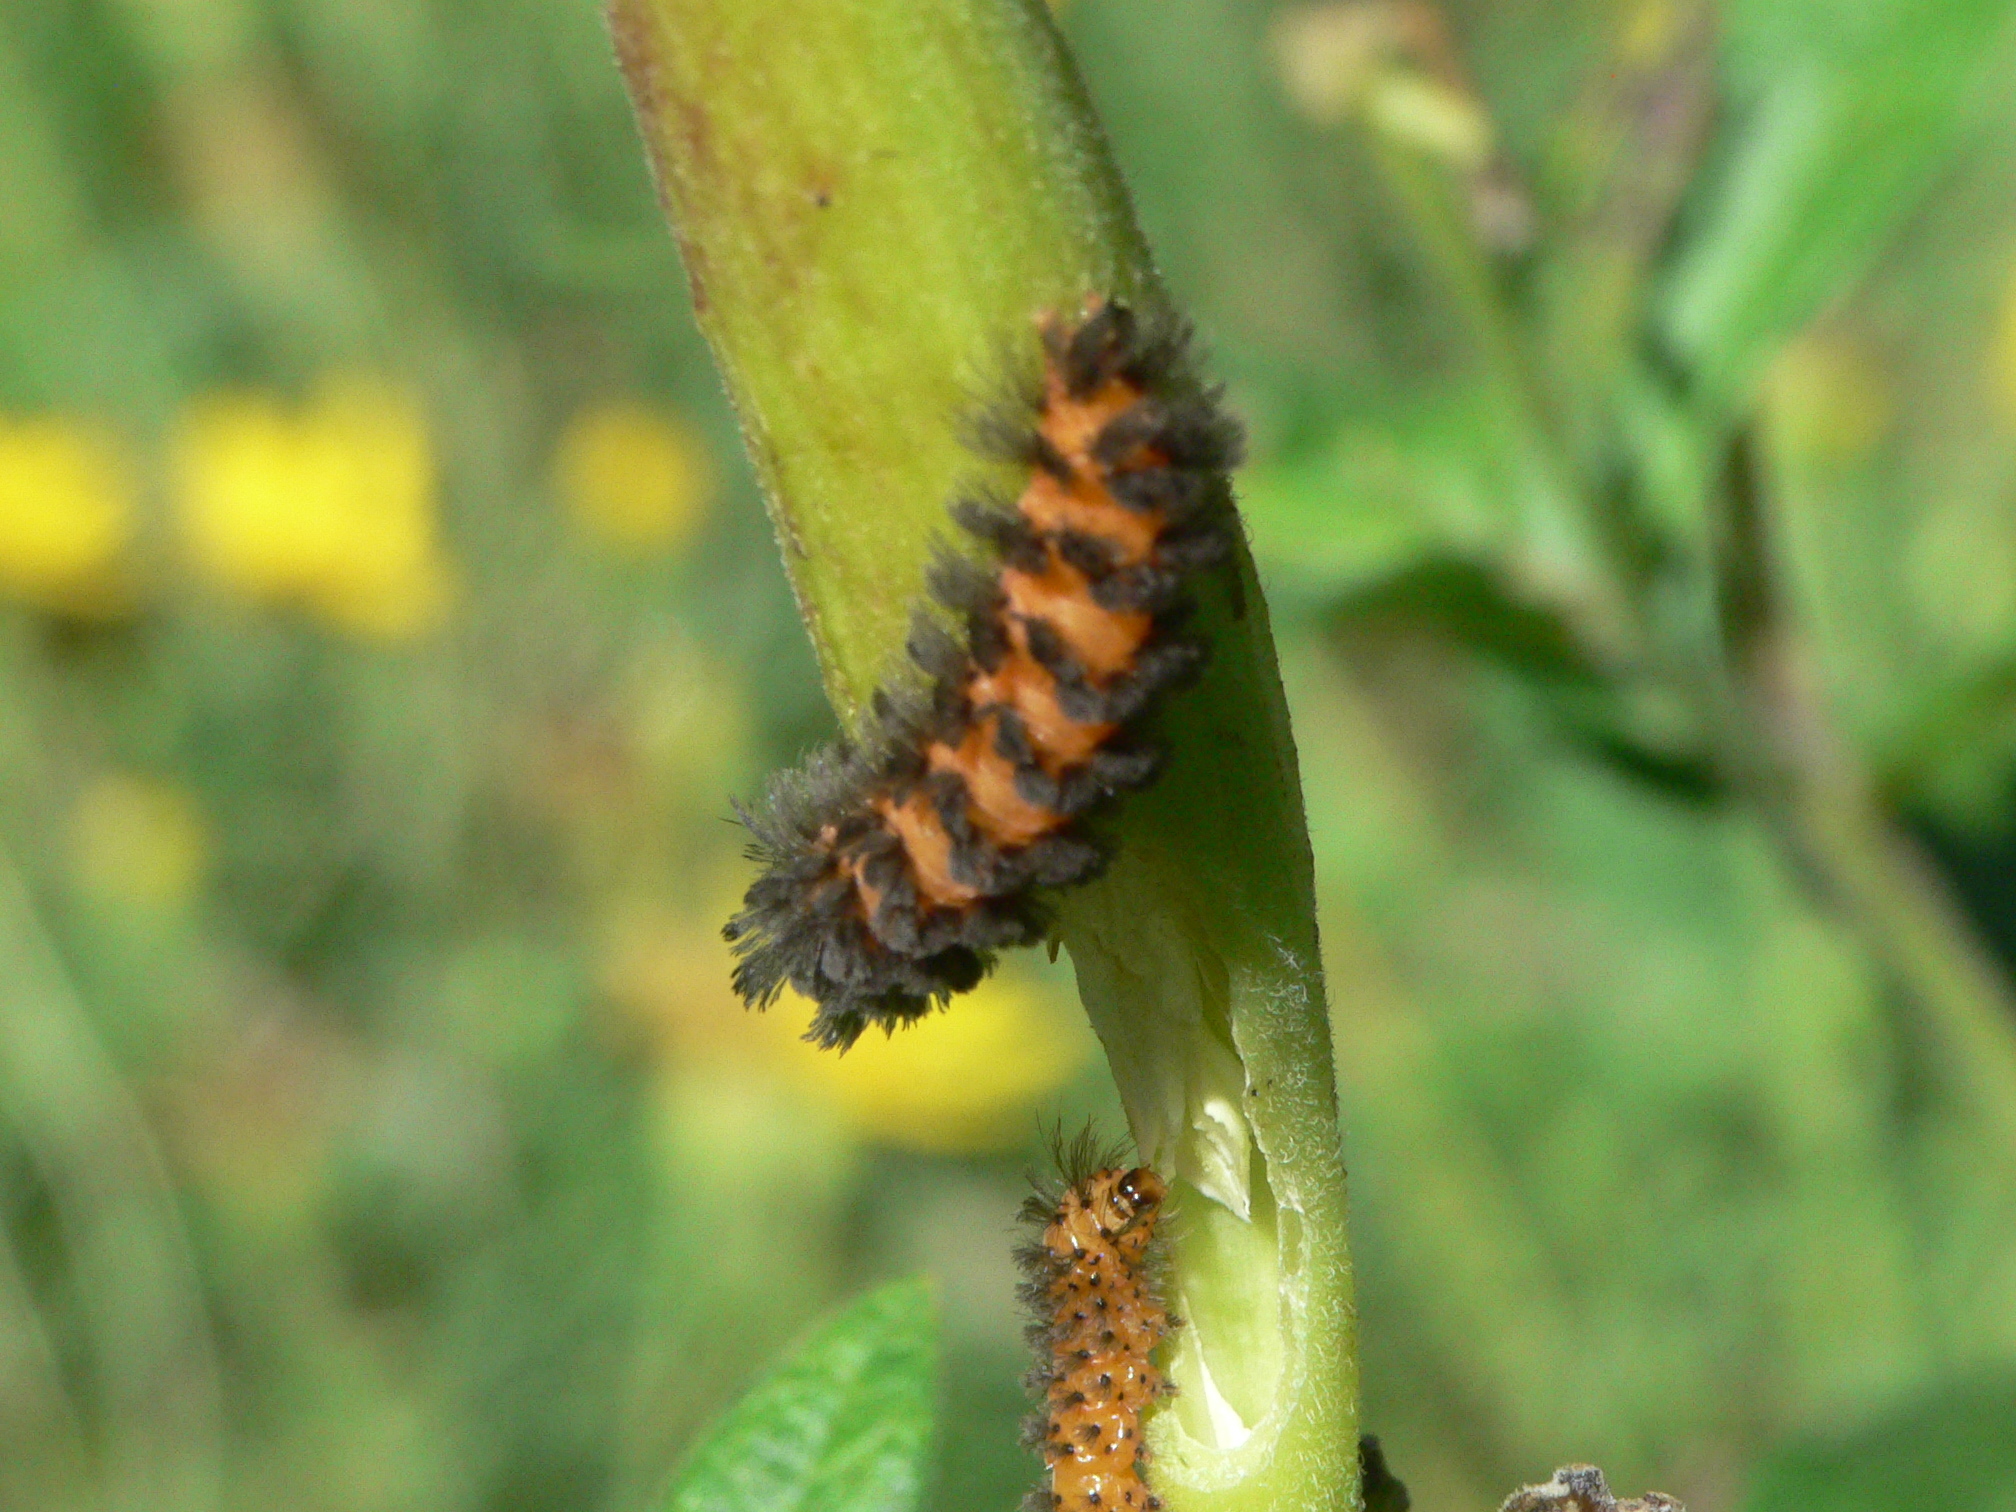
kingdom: Animalia
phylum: Arthropoda
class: Insecta
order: Lepidoptera
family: Erebidae
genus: Cycnia
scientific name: Cycnia collaris
